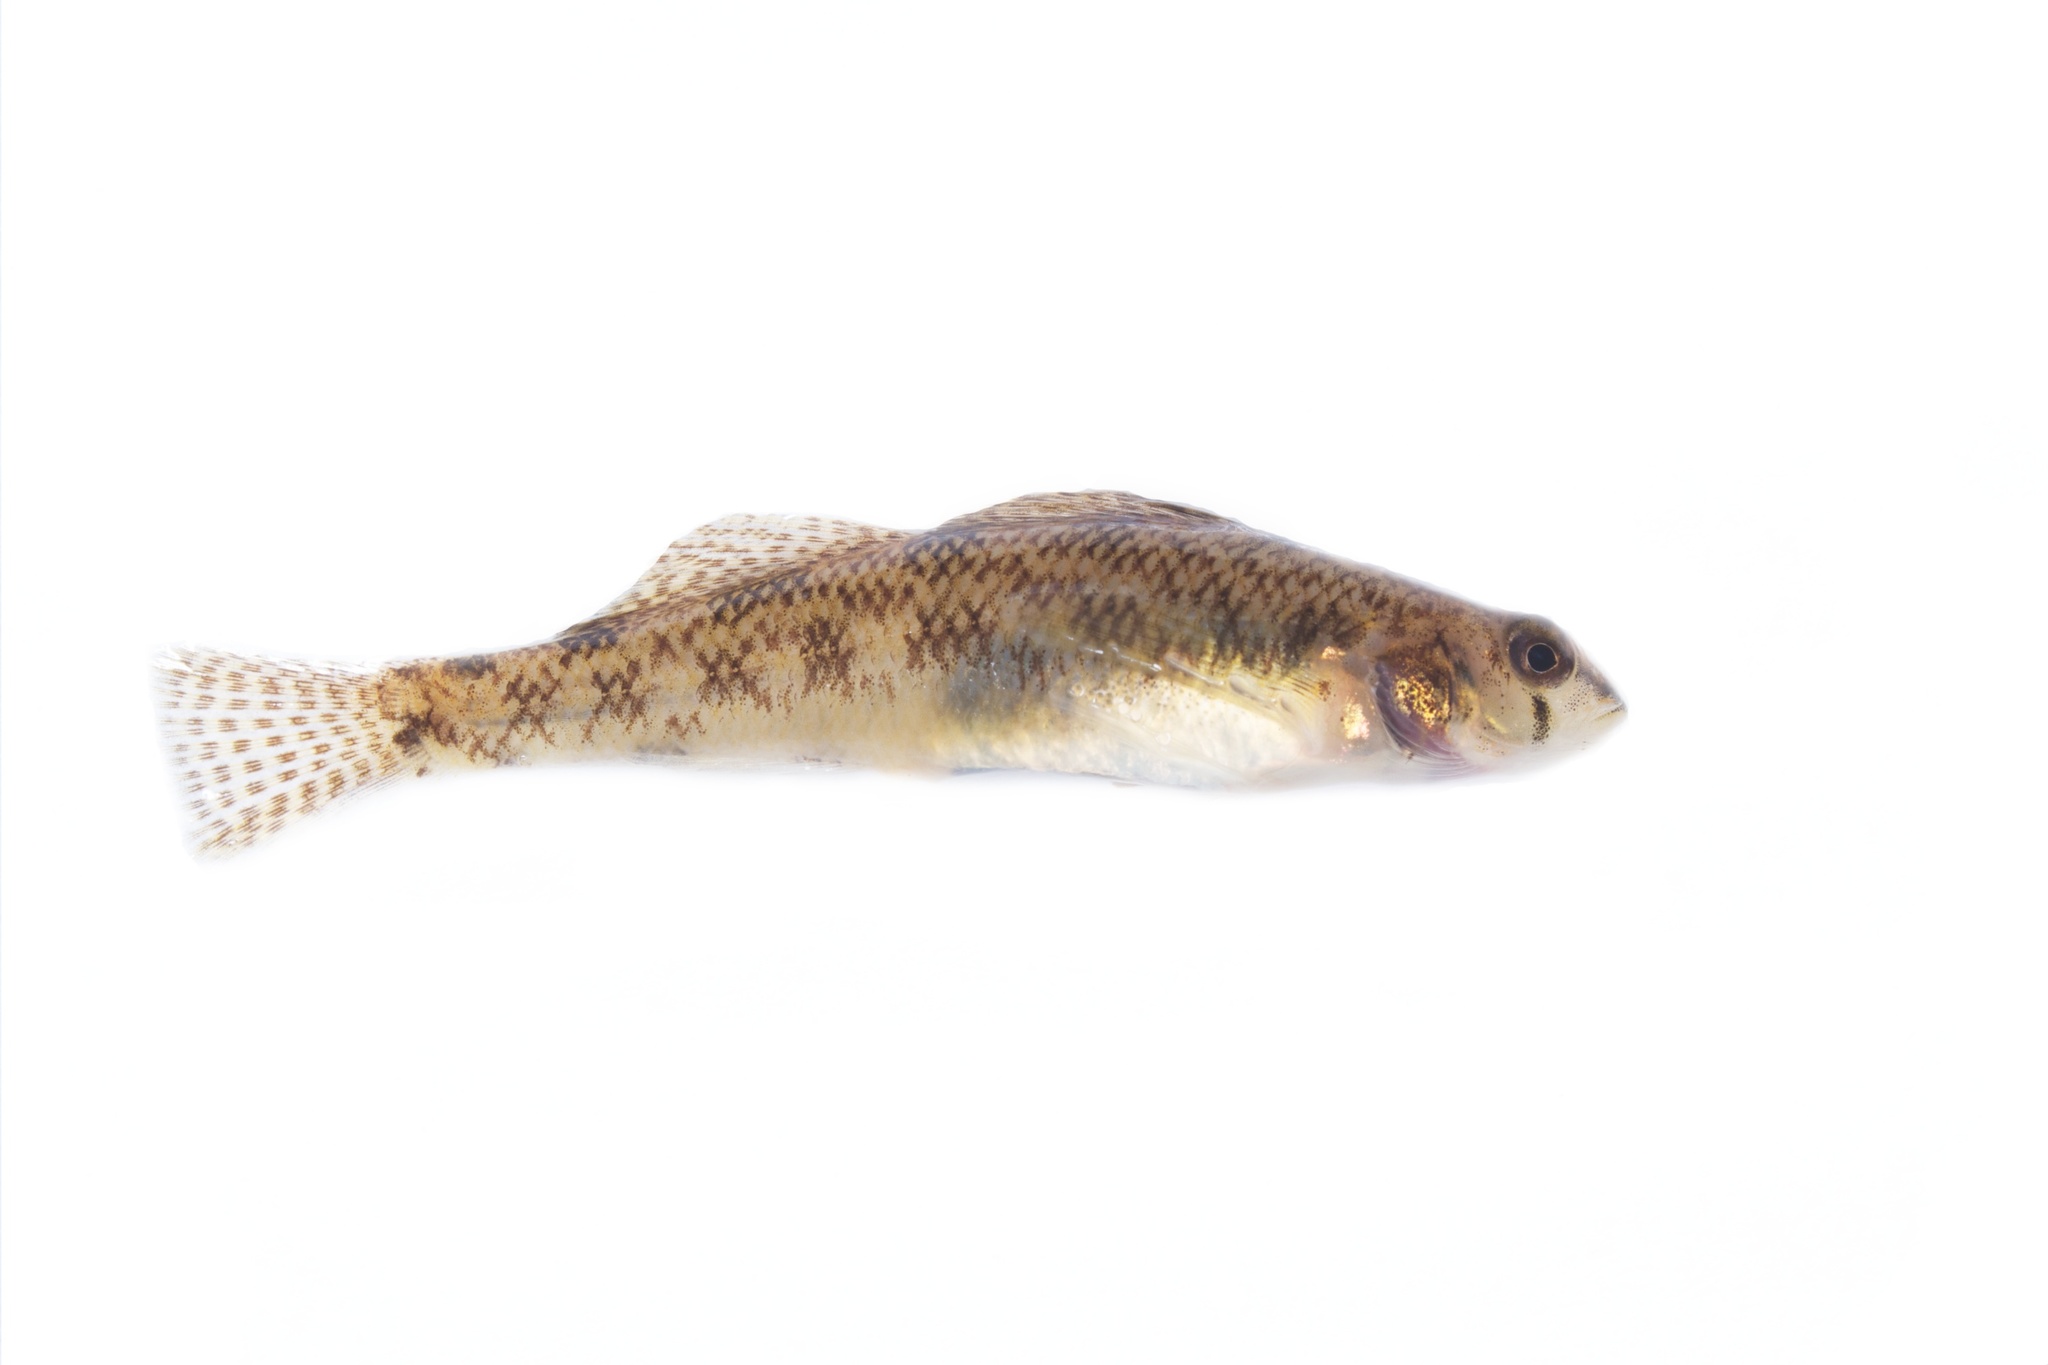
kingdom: Animalia
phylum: Chordata
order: Perciformes
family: Percidae
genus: Etheostoma
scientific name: Etheostoma olmstedi
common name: Tessellated darter
